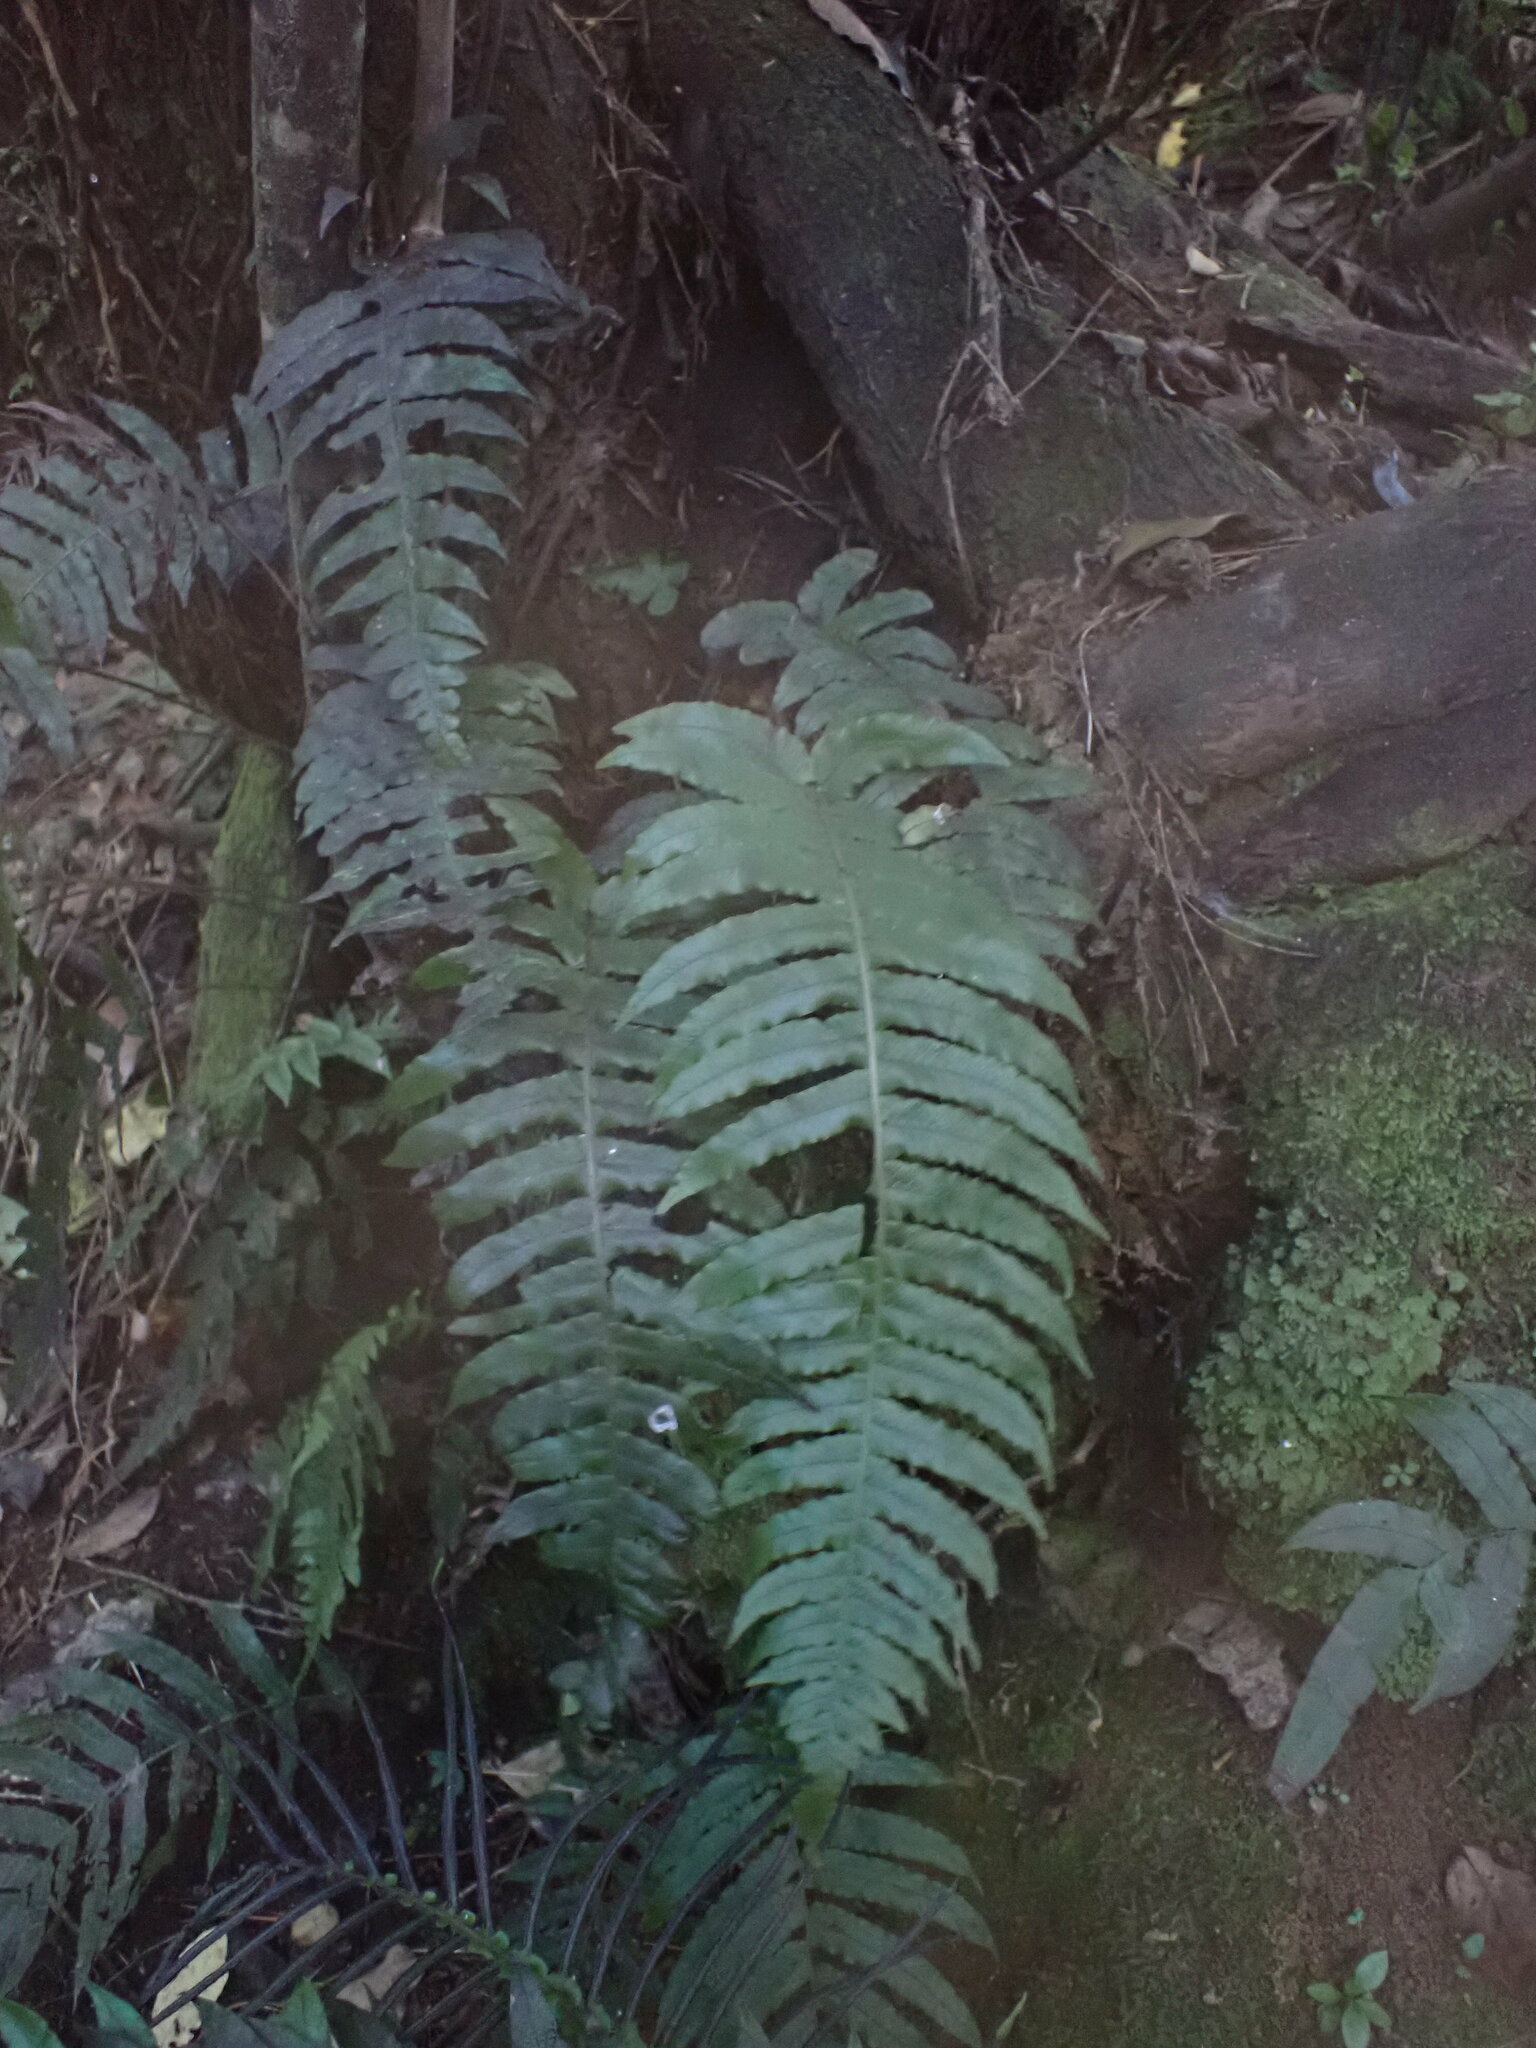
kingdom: Plantae
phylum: Tracheophyta
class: Polypodiopsida
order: Polypodiales
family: Blechnaceae
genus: Cranfillia
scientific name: Cranfillia deltoides
